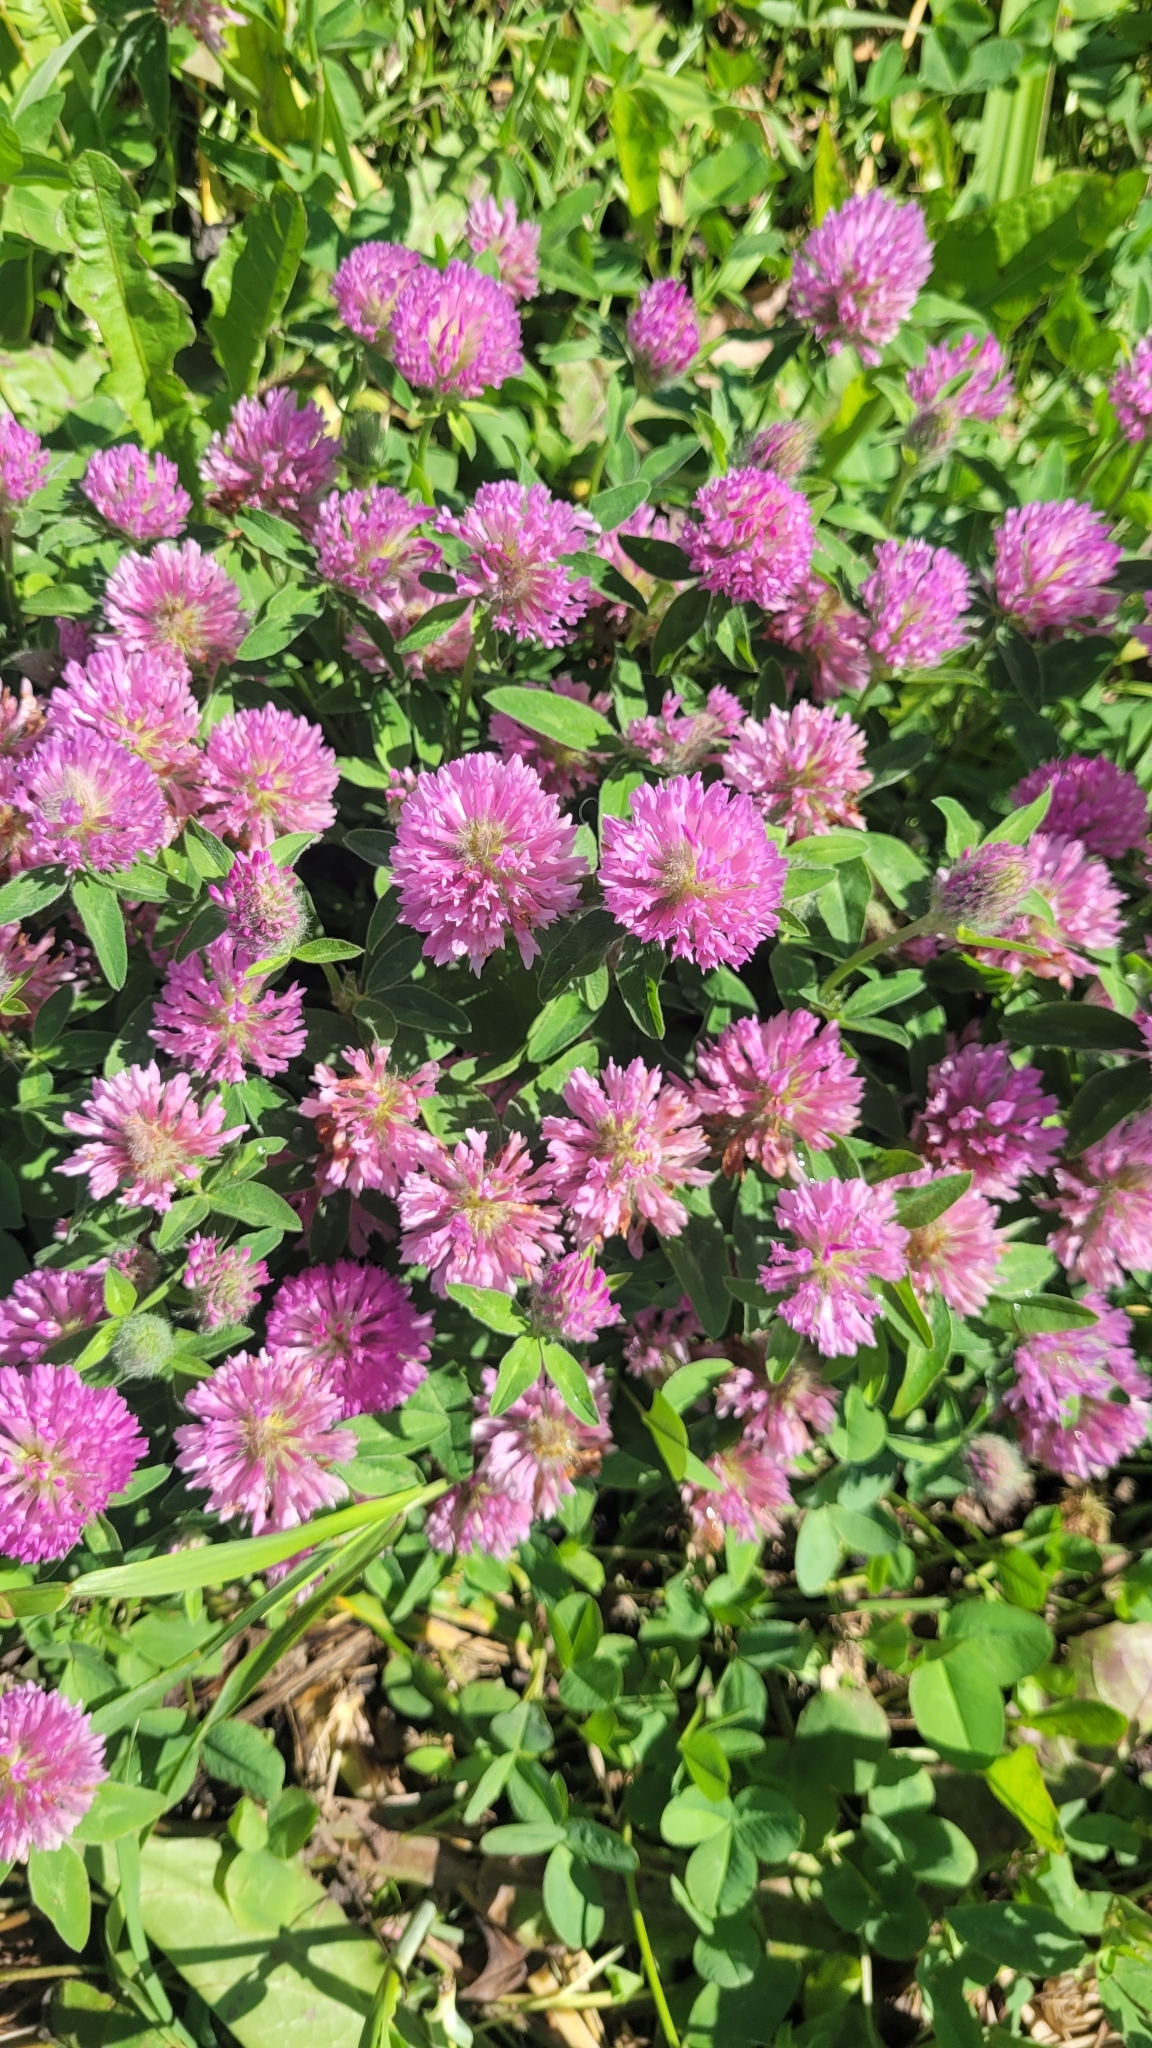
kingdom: Plantae
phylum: Tracheophyta
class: Magnoliopsida
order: Fabales
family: Fabaceae
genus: Trifolium
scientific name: Trifolium pratense
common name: Red clover
